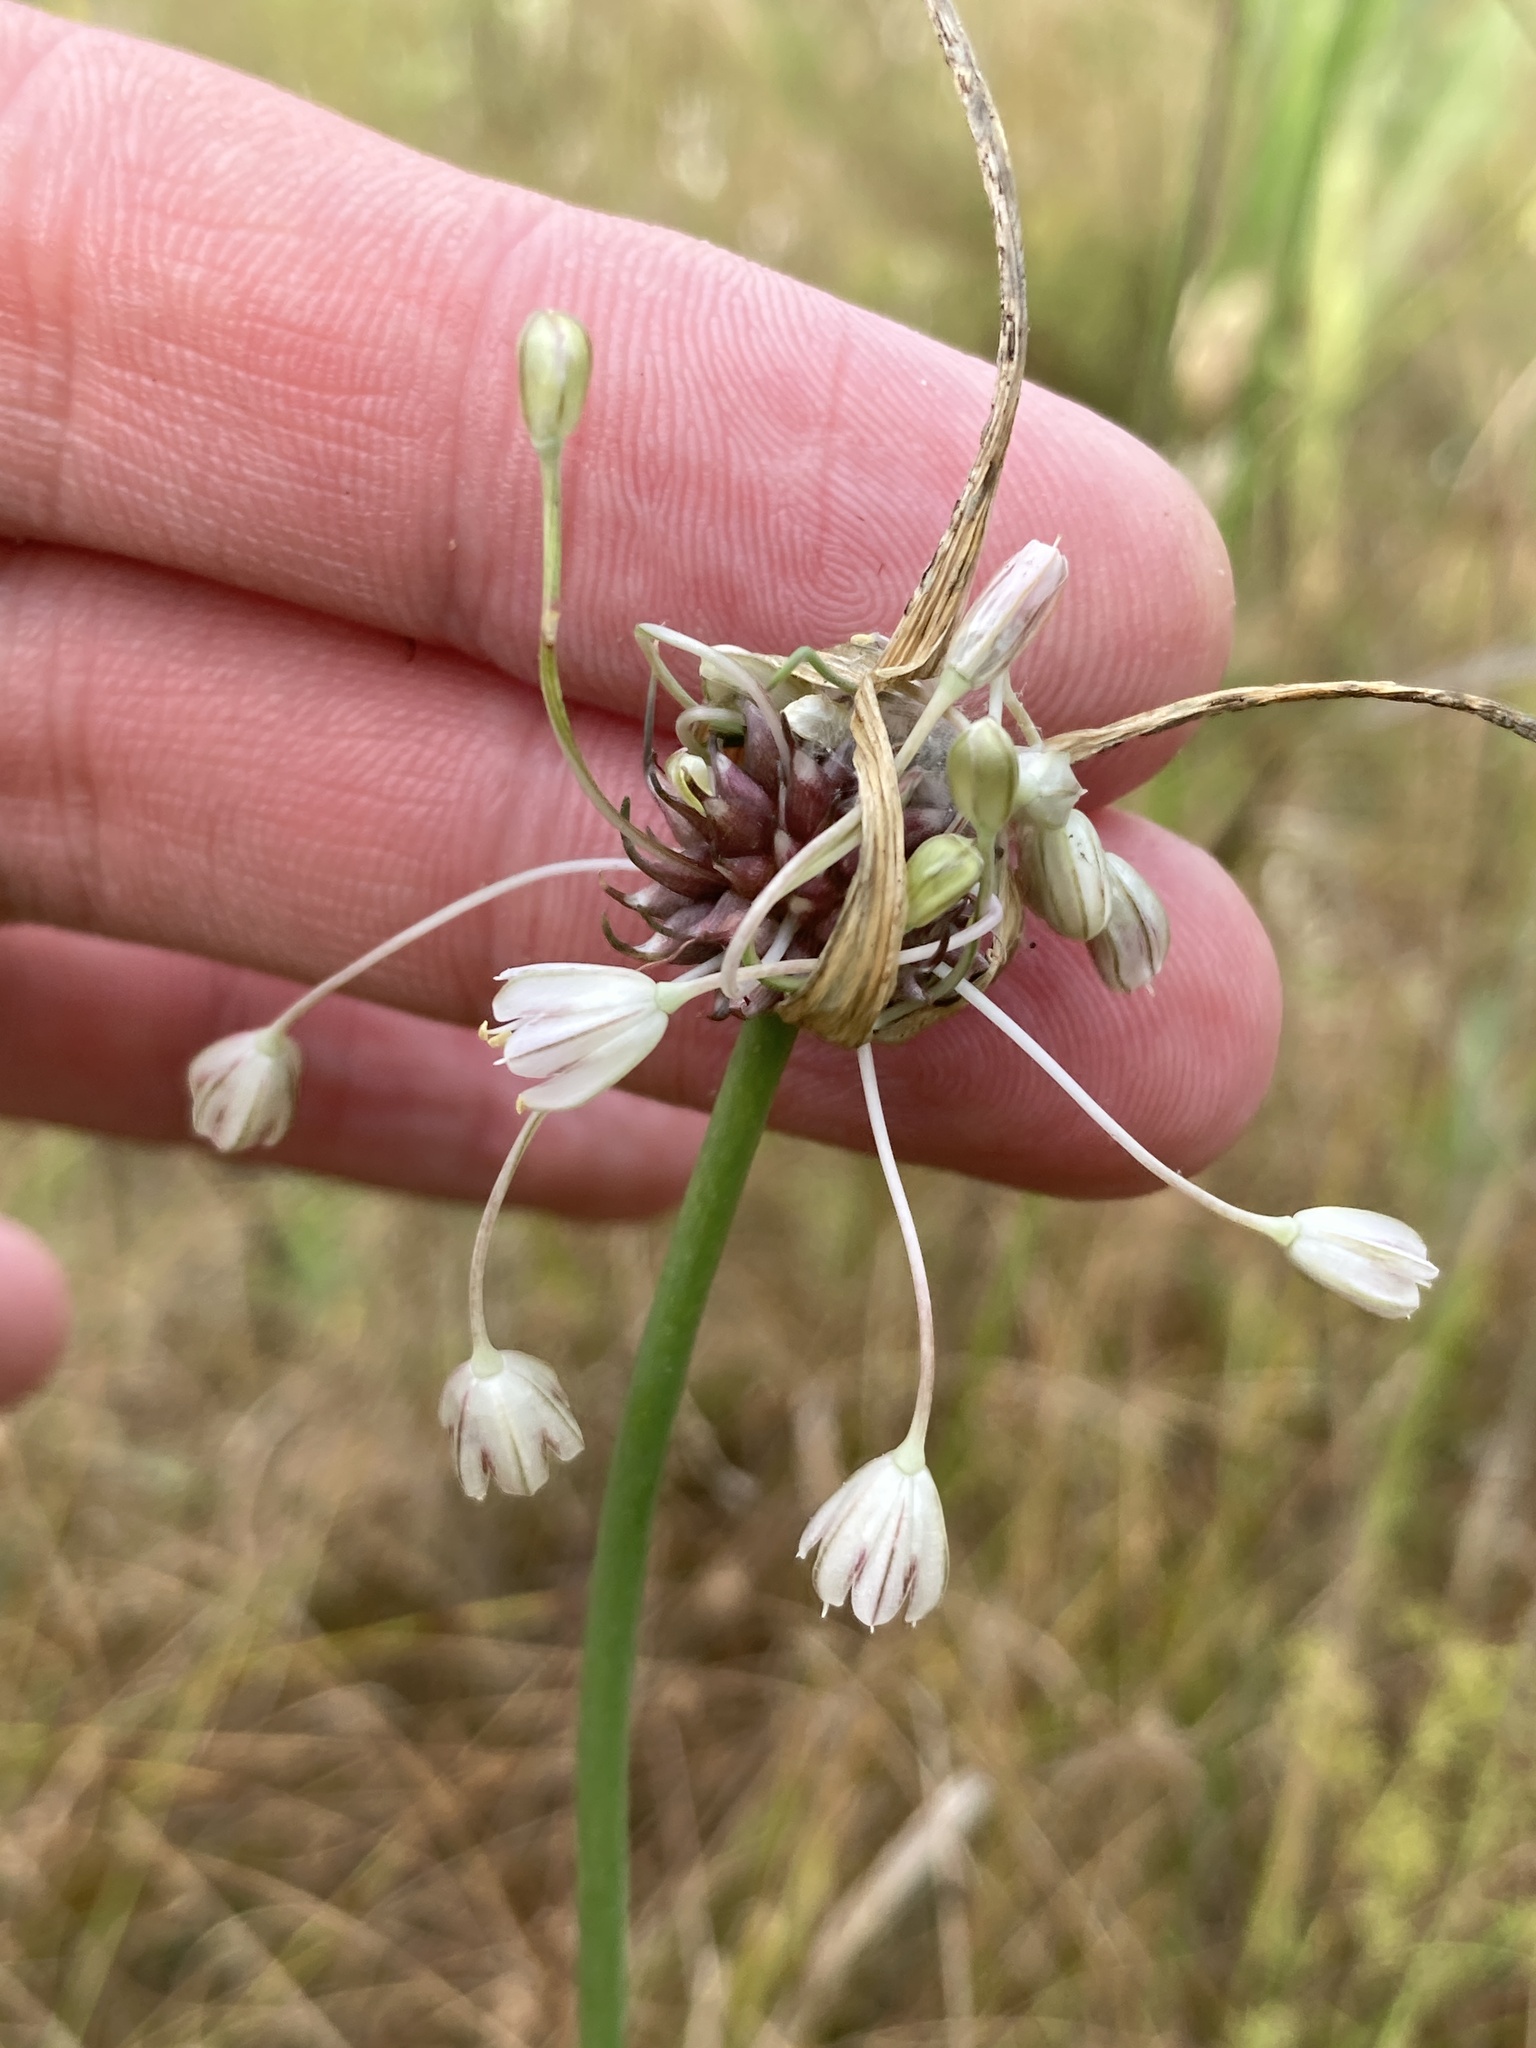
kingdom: Plantae
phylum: Tracheophyta
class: Liliopsida
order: Asparagales
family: Amaryllidaceae
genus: Allium
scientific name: Allium oleraceum
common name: Field garlic
